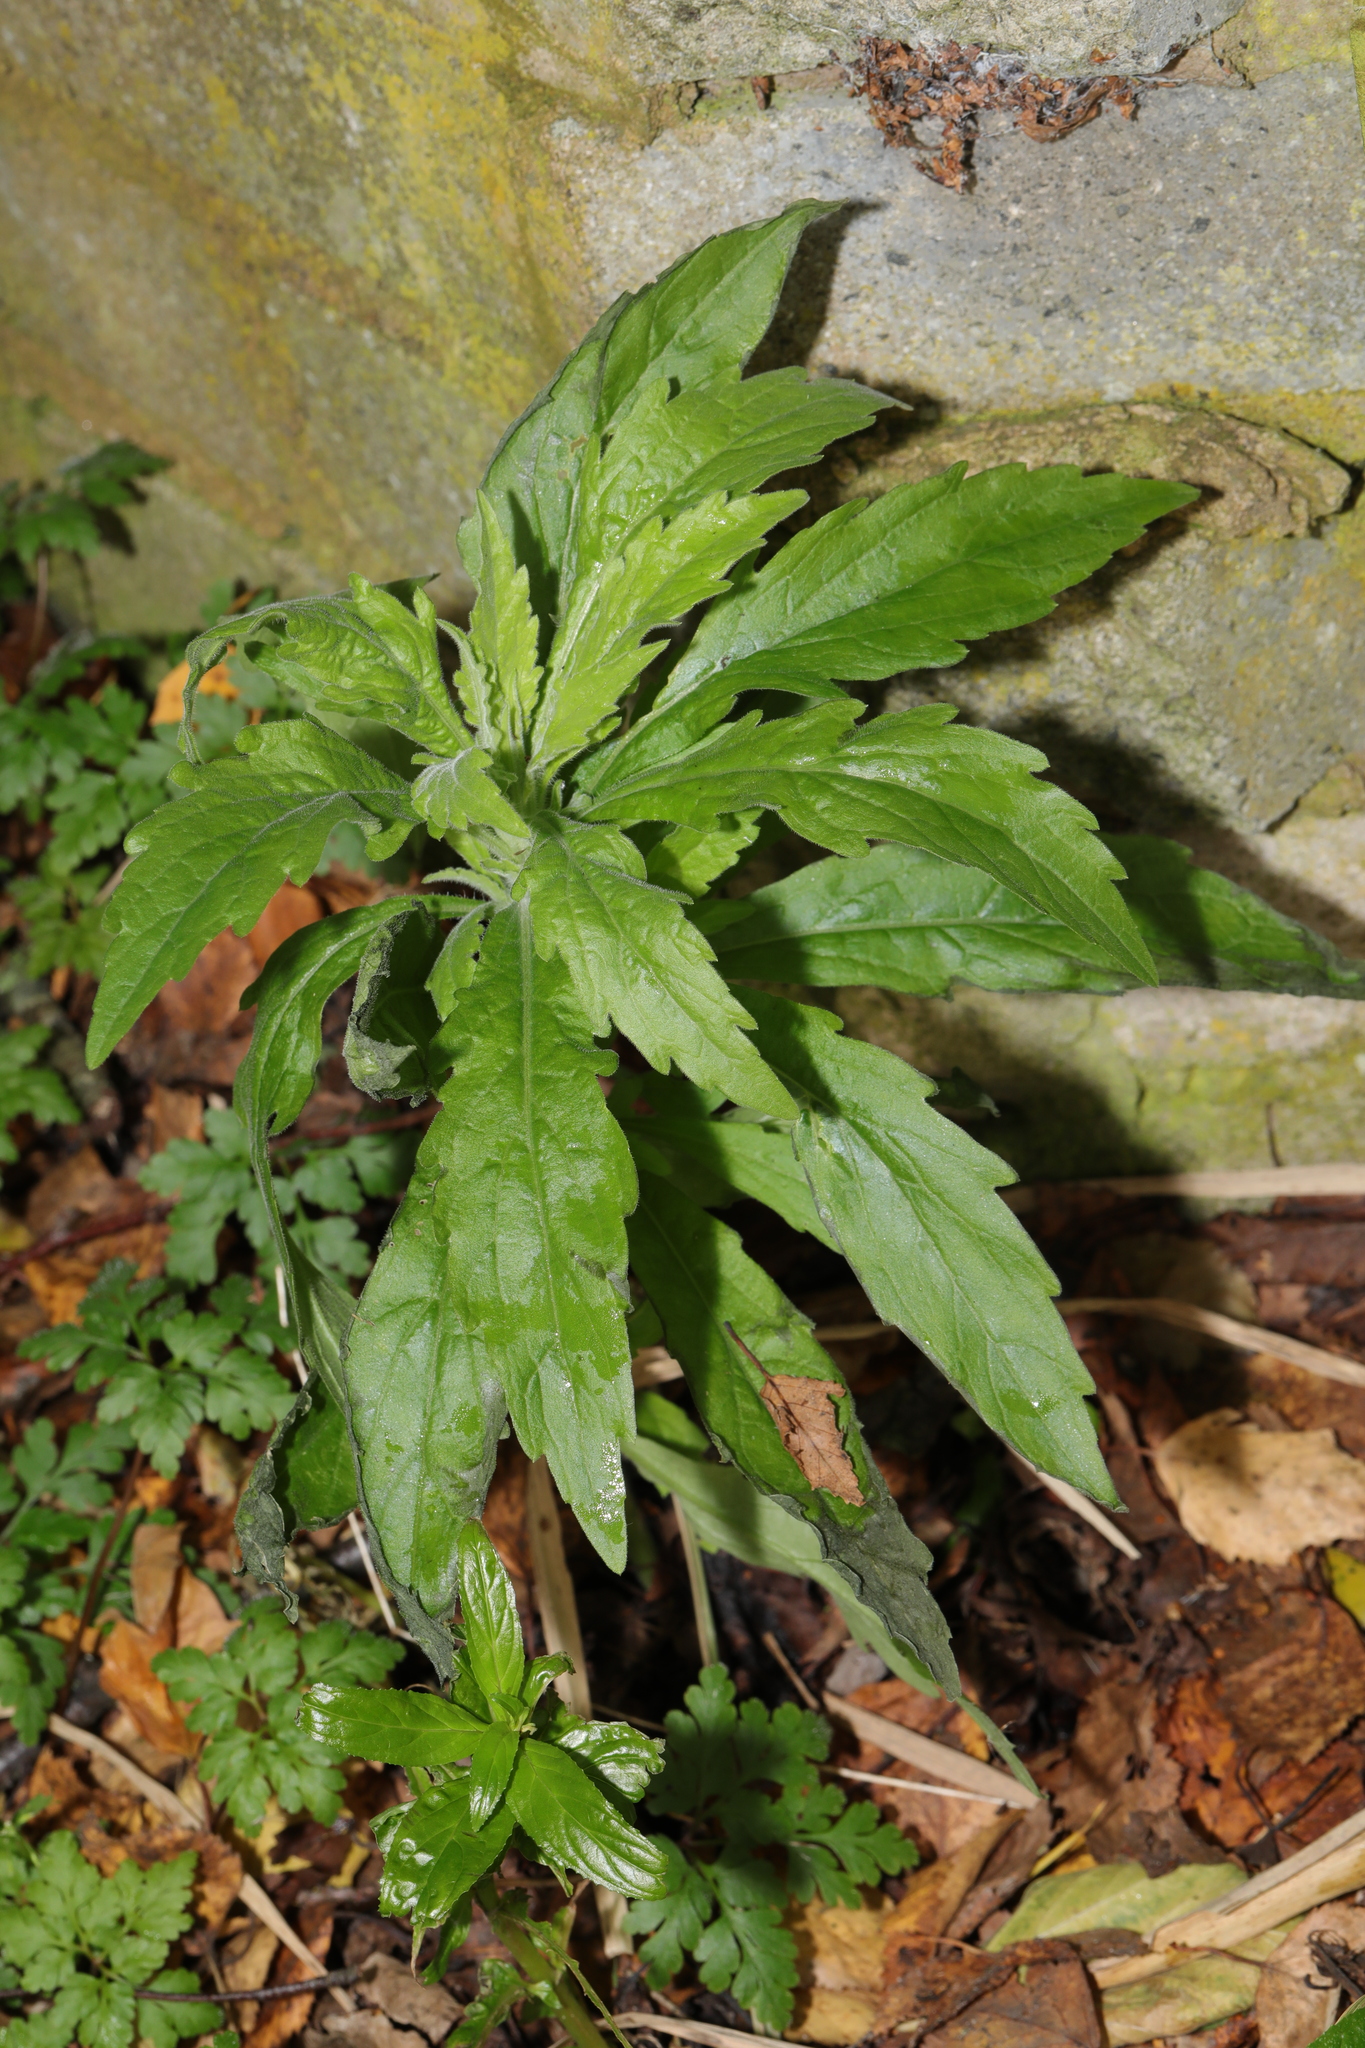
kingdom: Plantae
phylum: Tracheophyta
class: Magnoliopsida
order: Asterales
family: Asteraceae
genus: Erigeron
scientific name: Erigeron sumatrensis
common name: Daisy
